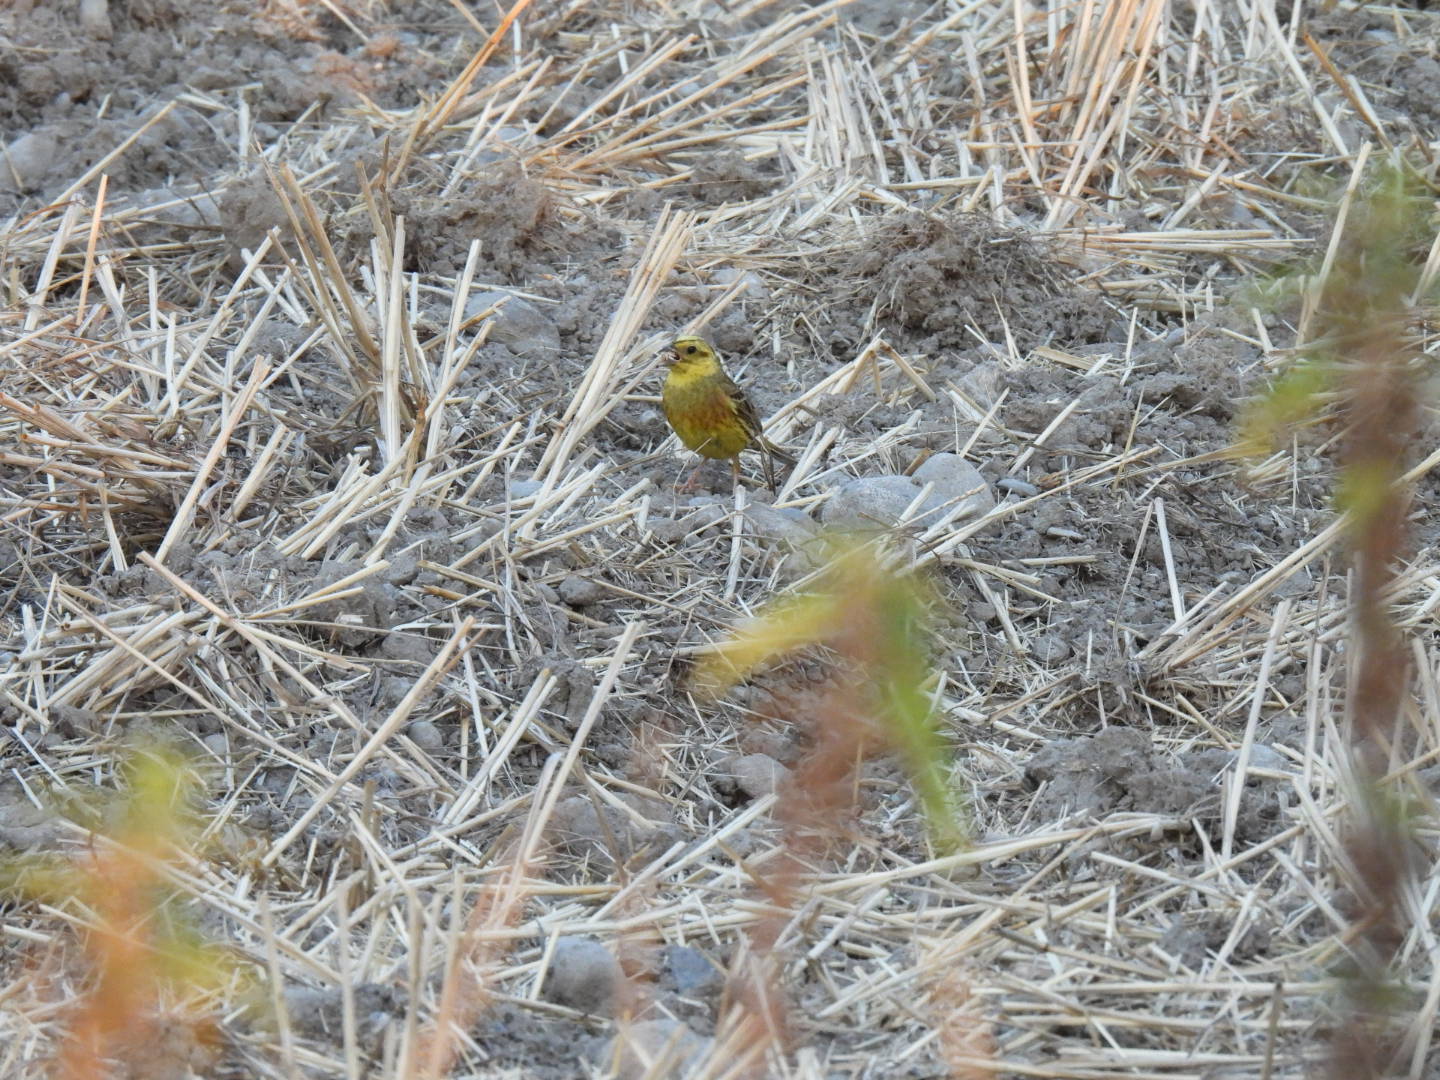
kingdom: Animalia
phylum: Chordata
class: Aves
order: Passeriformes
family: Emberizidae
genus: Emberiza
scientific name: Emberiza citrinella
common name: Yellowhammer
